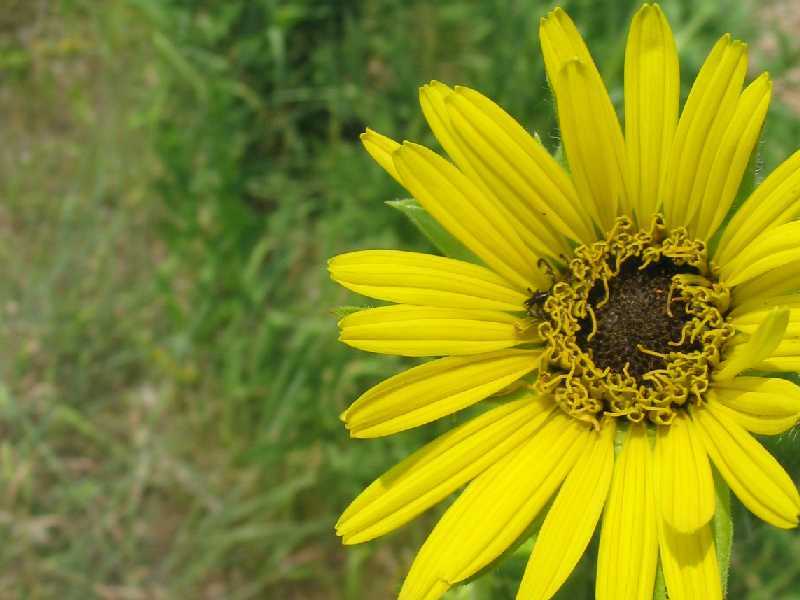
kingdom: Plantae
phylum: Tracheophyta
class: Magnoliopsida
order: Asterales
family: Asteraceae
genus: Silphium
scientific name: Silphium laciniatum
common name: Polarplant
